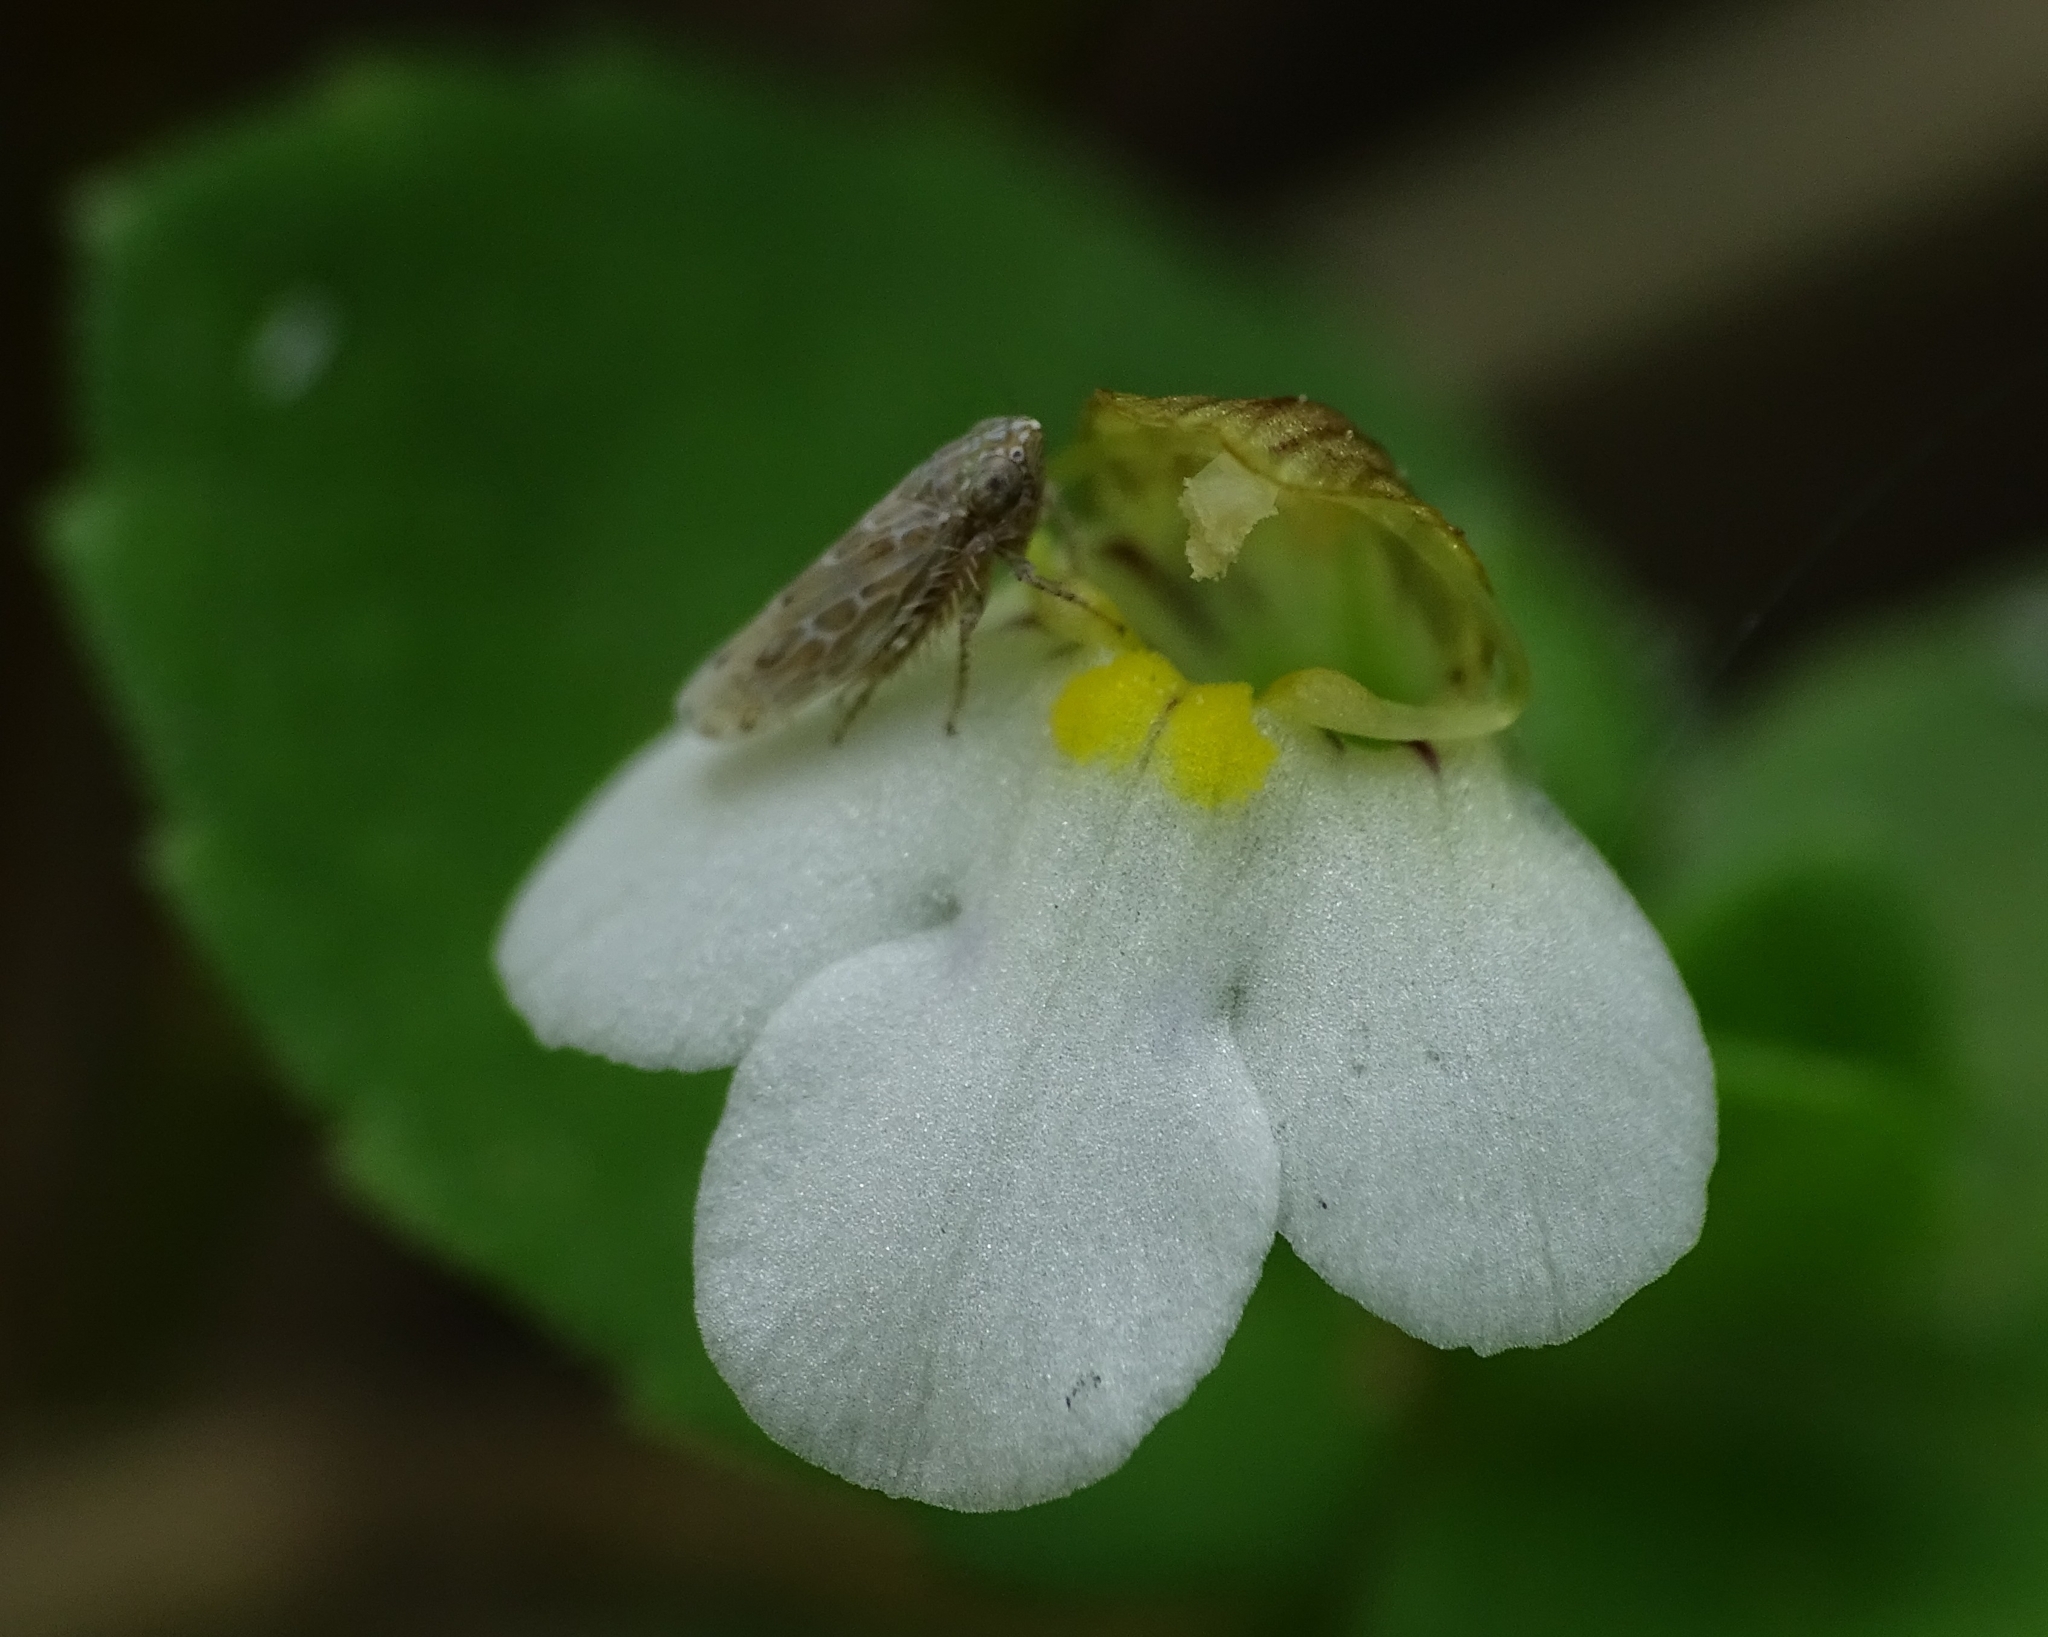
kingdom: Animalia
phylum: Arthropoda
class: Insecta
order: Hemiptera
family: Cicadellidae
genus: Matsumuratettix
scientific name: Matsumuratettix
